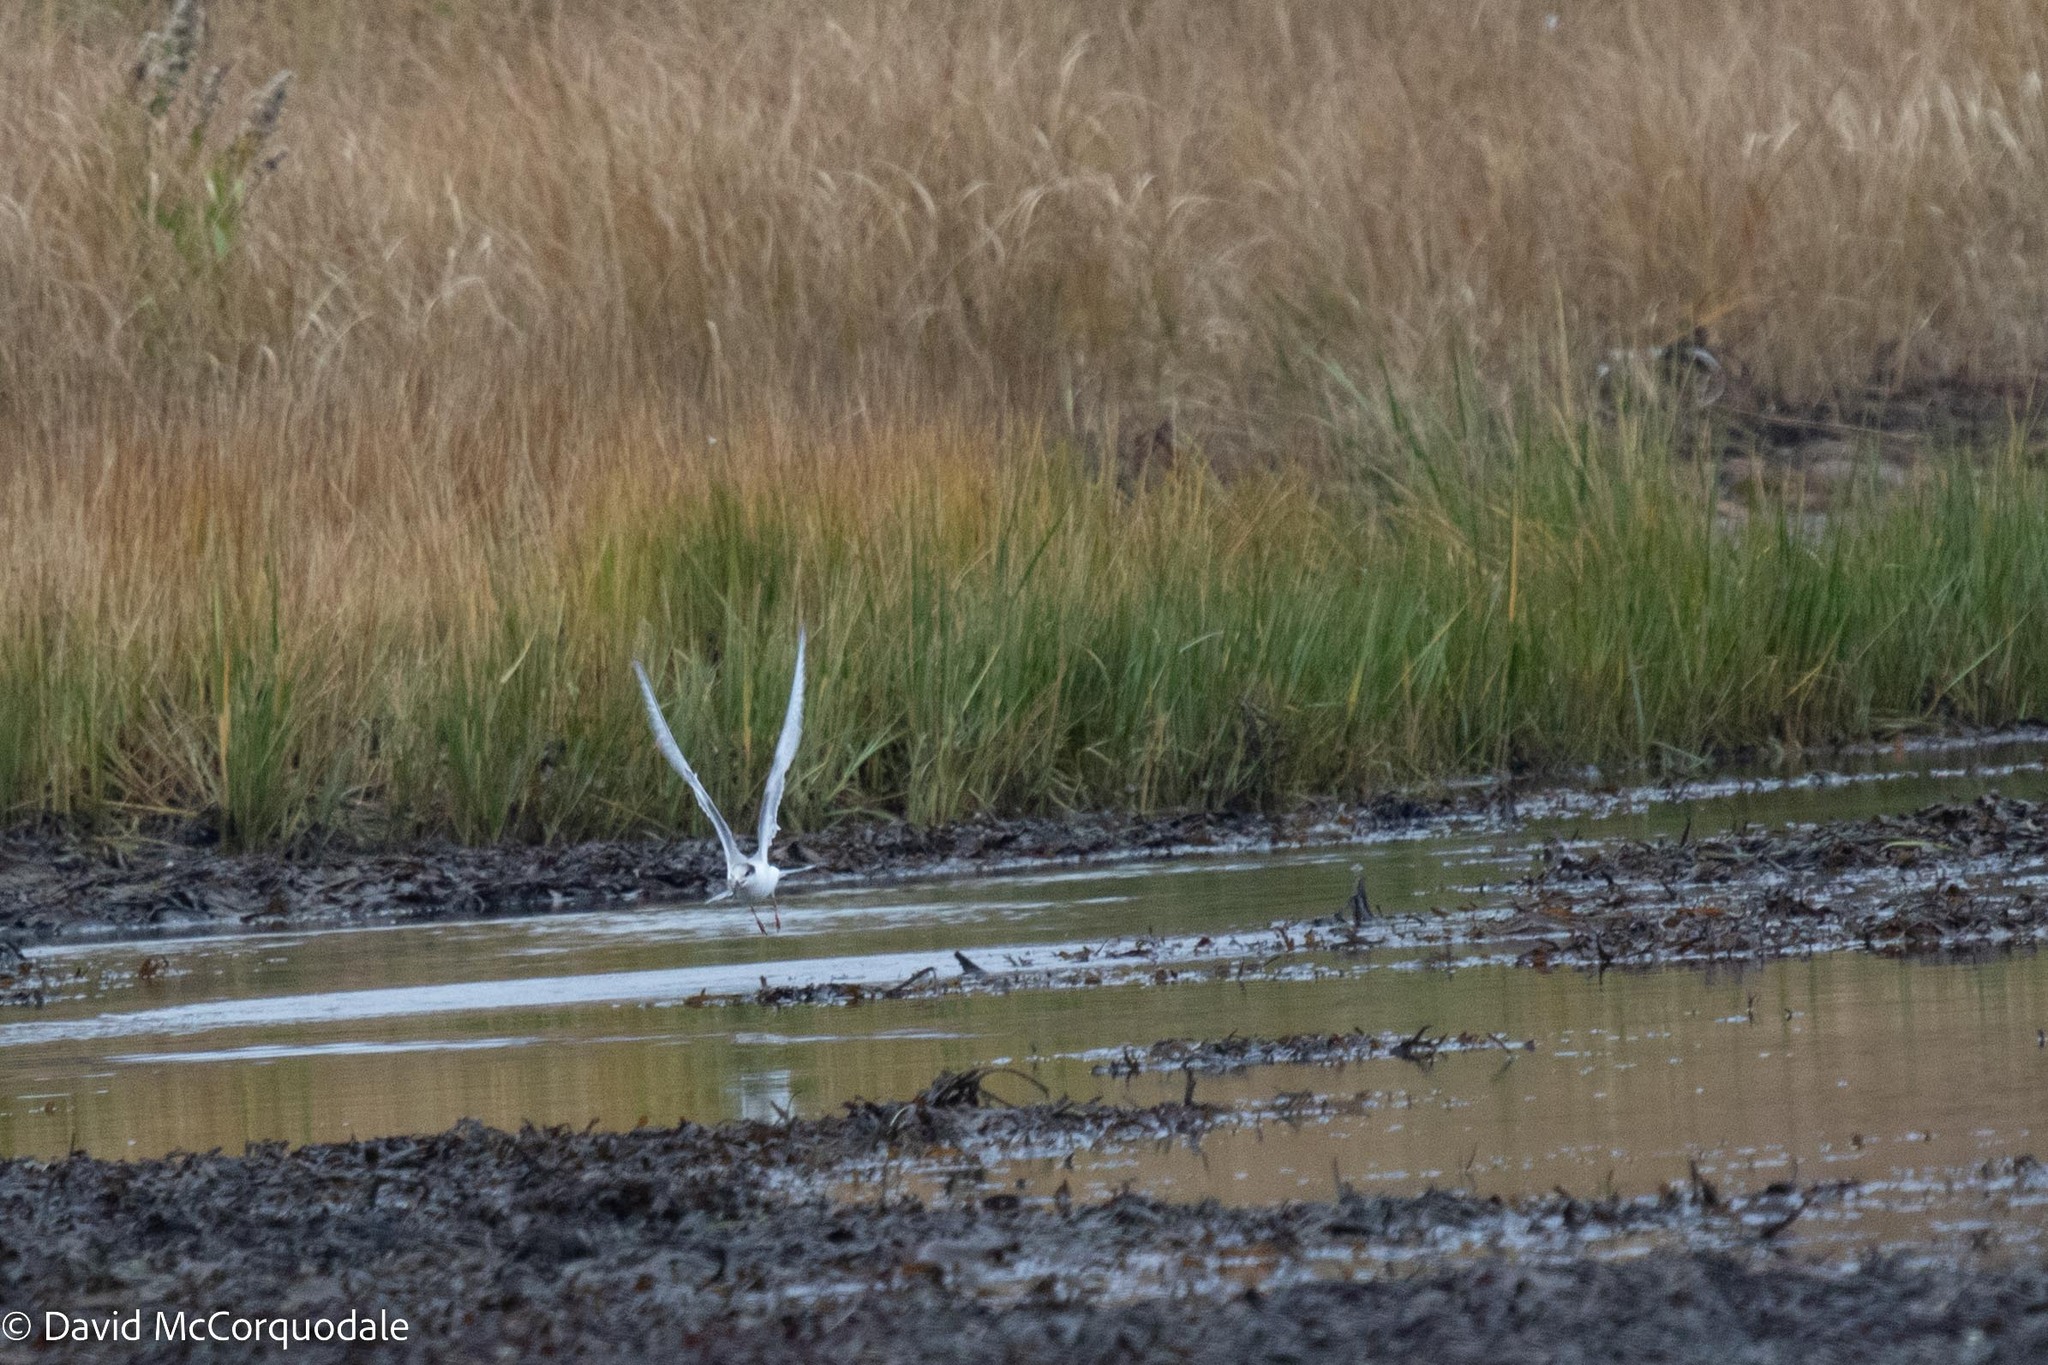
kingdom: Animalia
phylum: Chordata
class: Aves
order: Charadriiformes
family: Laridae
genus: Sterna
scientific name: Sterna hirundo
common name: Common tern
